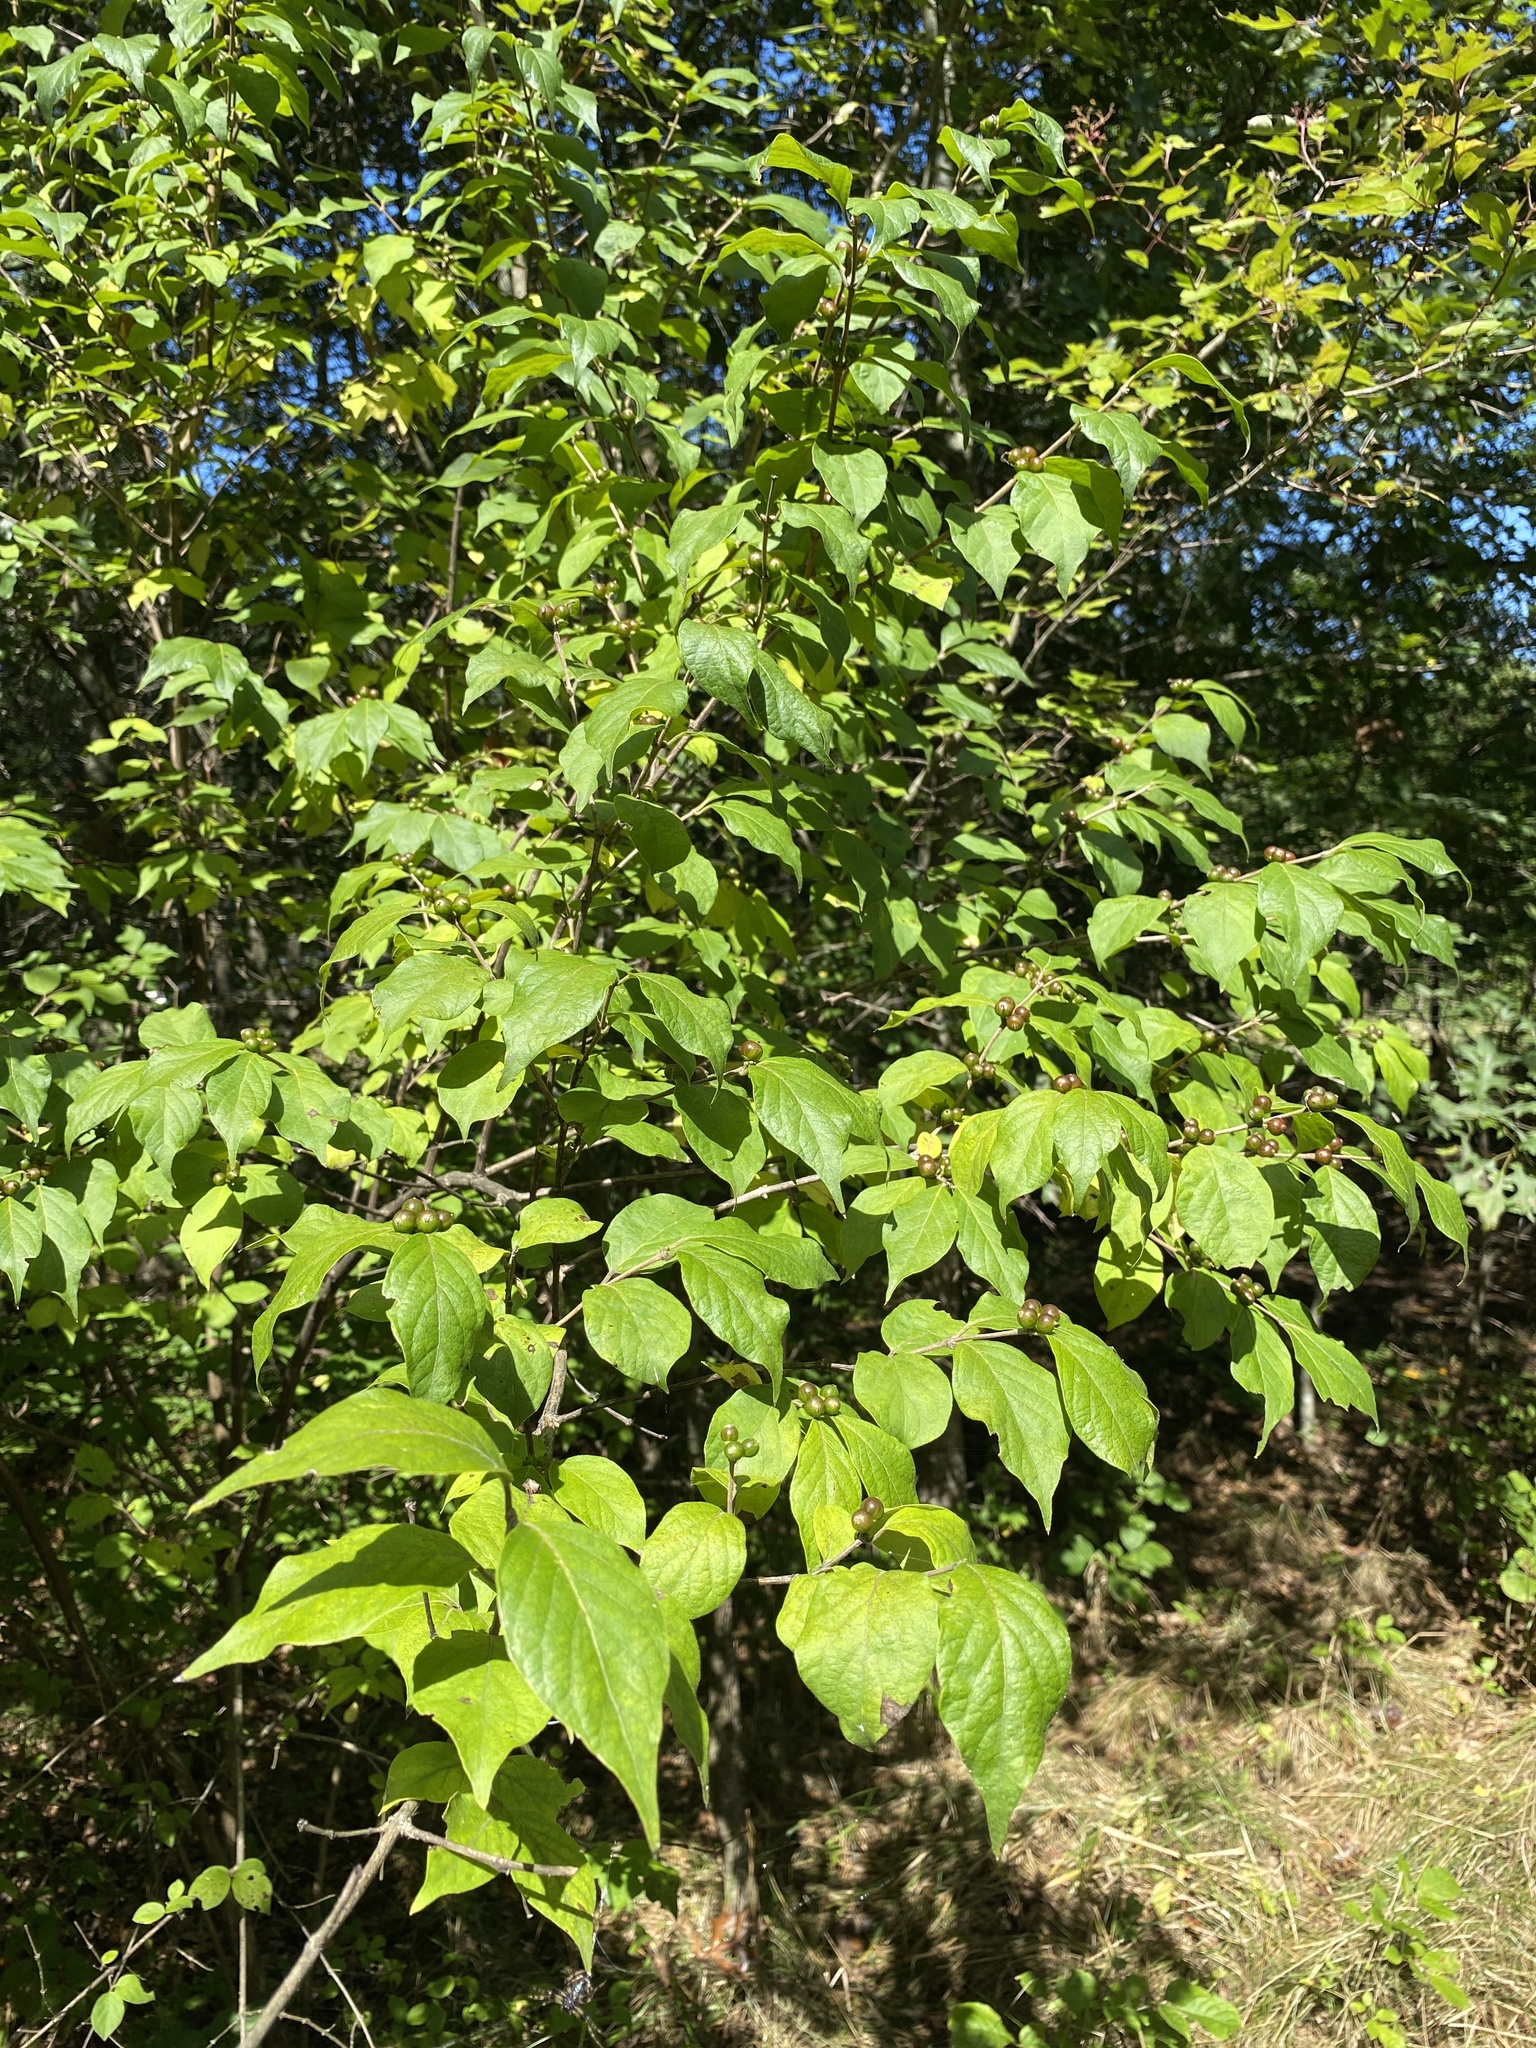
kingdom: Plantae
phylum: Tracheophyta
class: Magnoliopsida
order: Dipsacales
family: Caprifoliaceae
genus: Lonicera
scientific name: Lonicera maackii
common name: Amur honeysuckle
